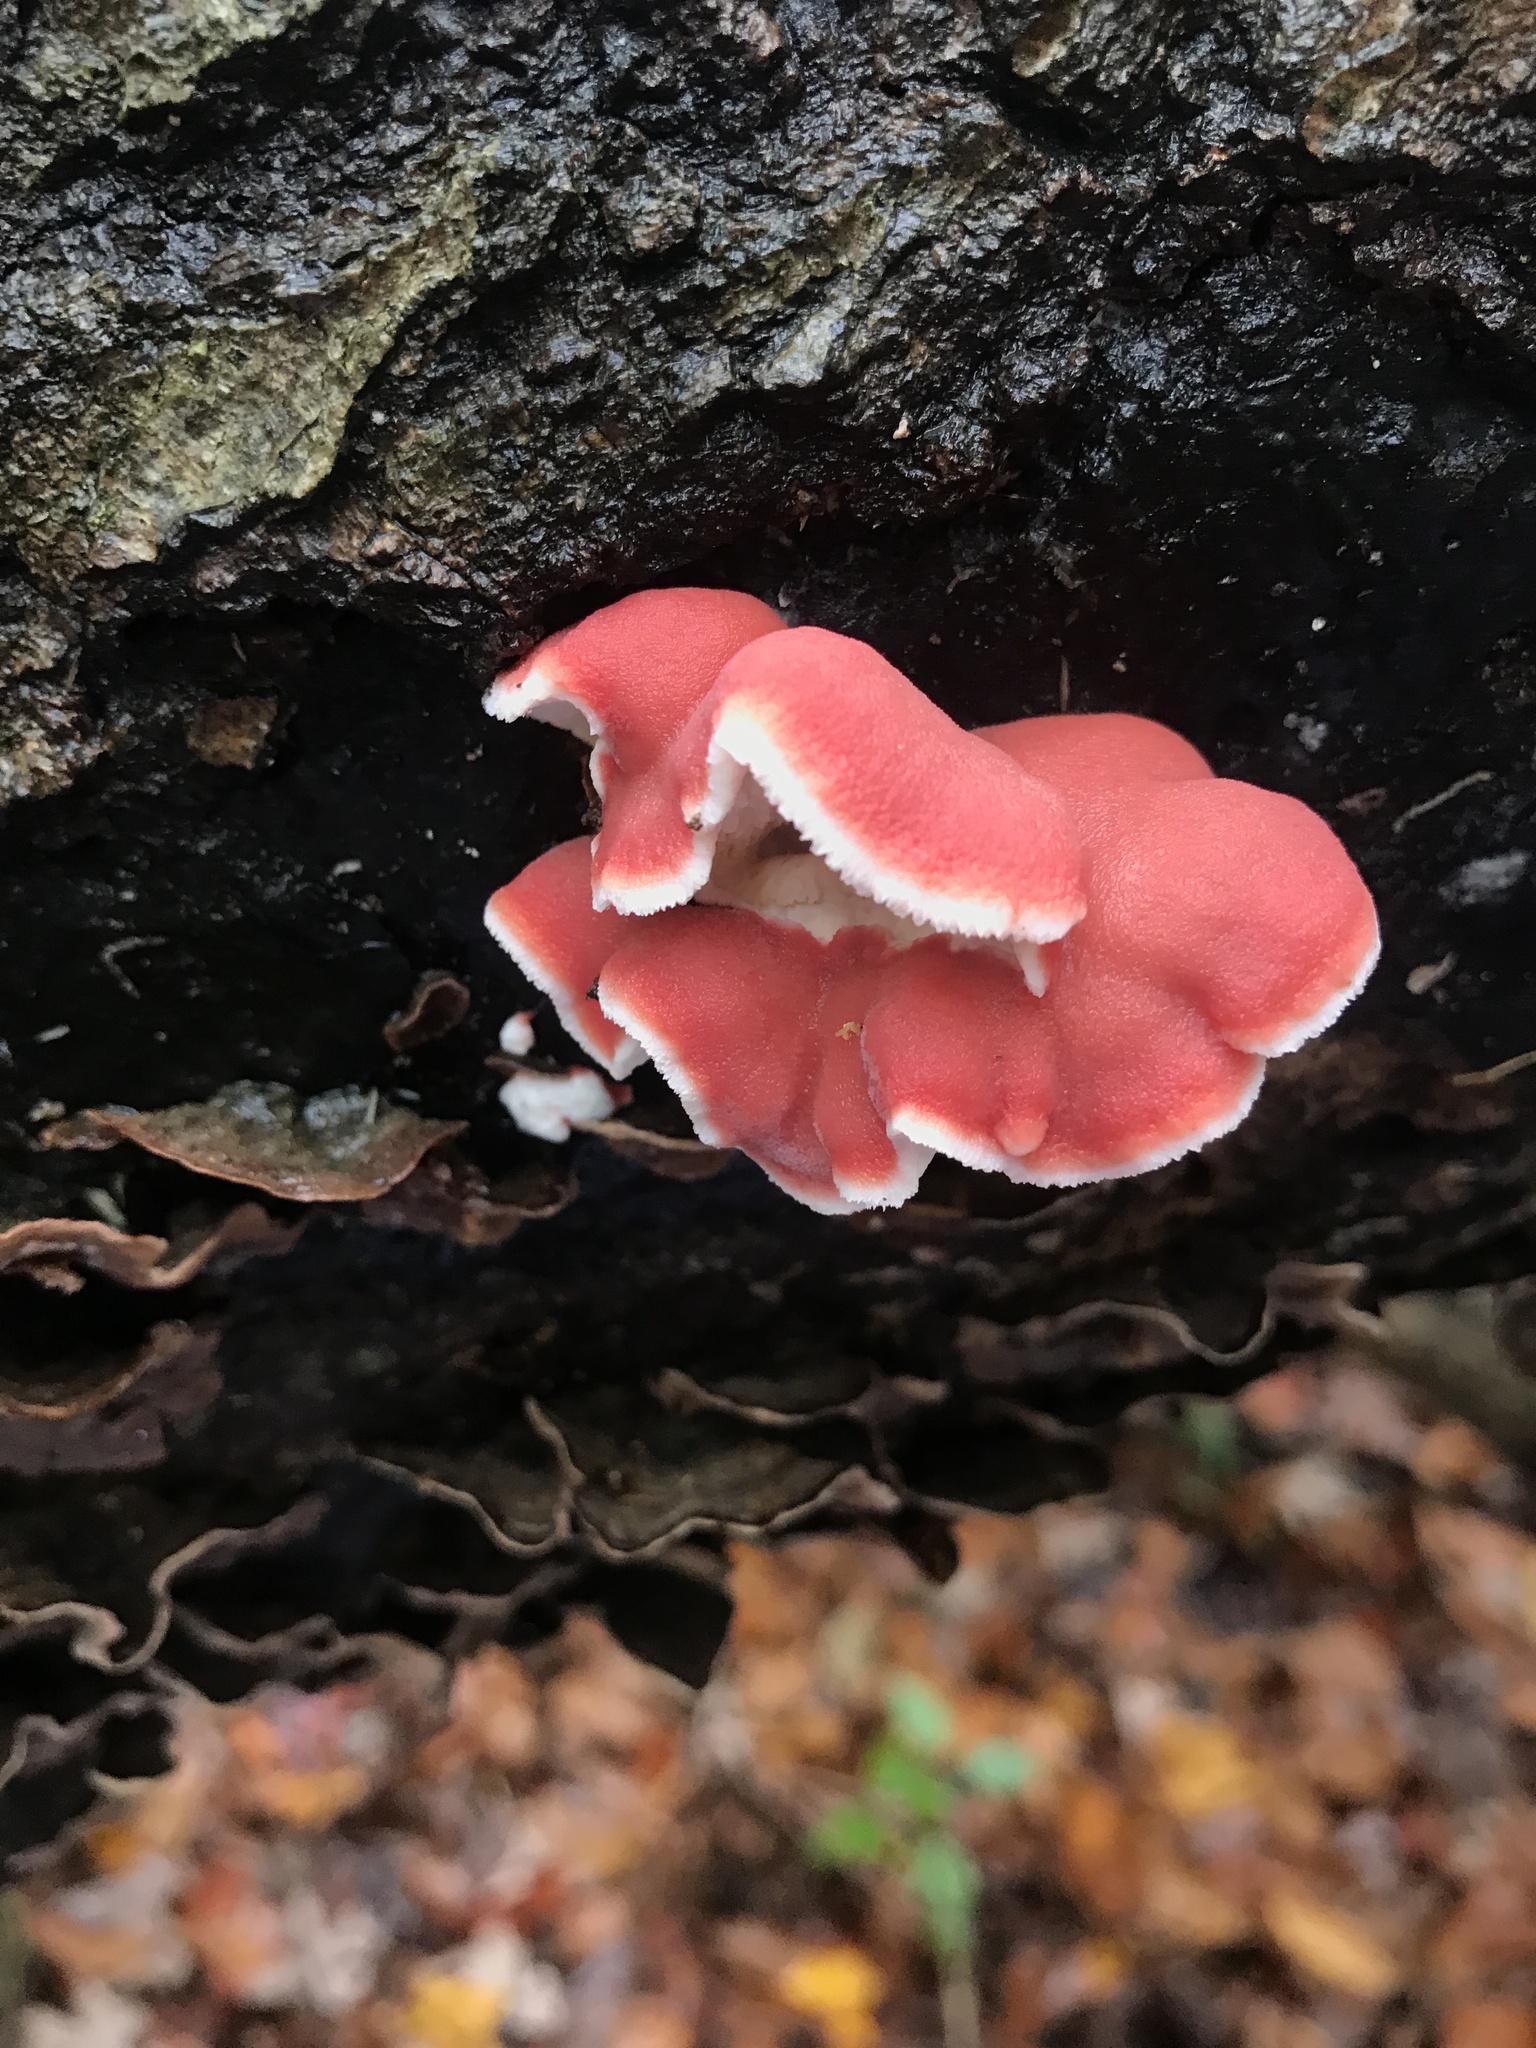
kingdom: Fungi
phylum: Basidiomycota
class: Agaricomycetes
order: Polyporales
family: Irpicaceae
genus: Byssomerulius
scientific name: Byssomerulius incarnatus
